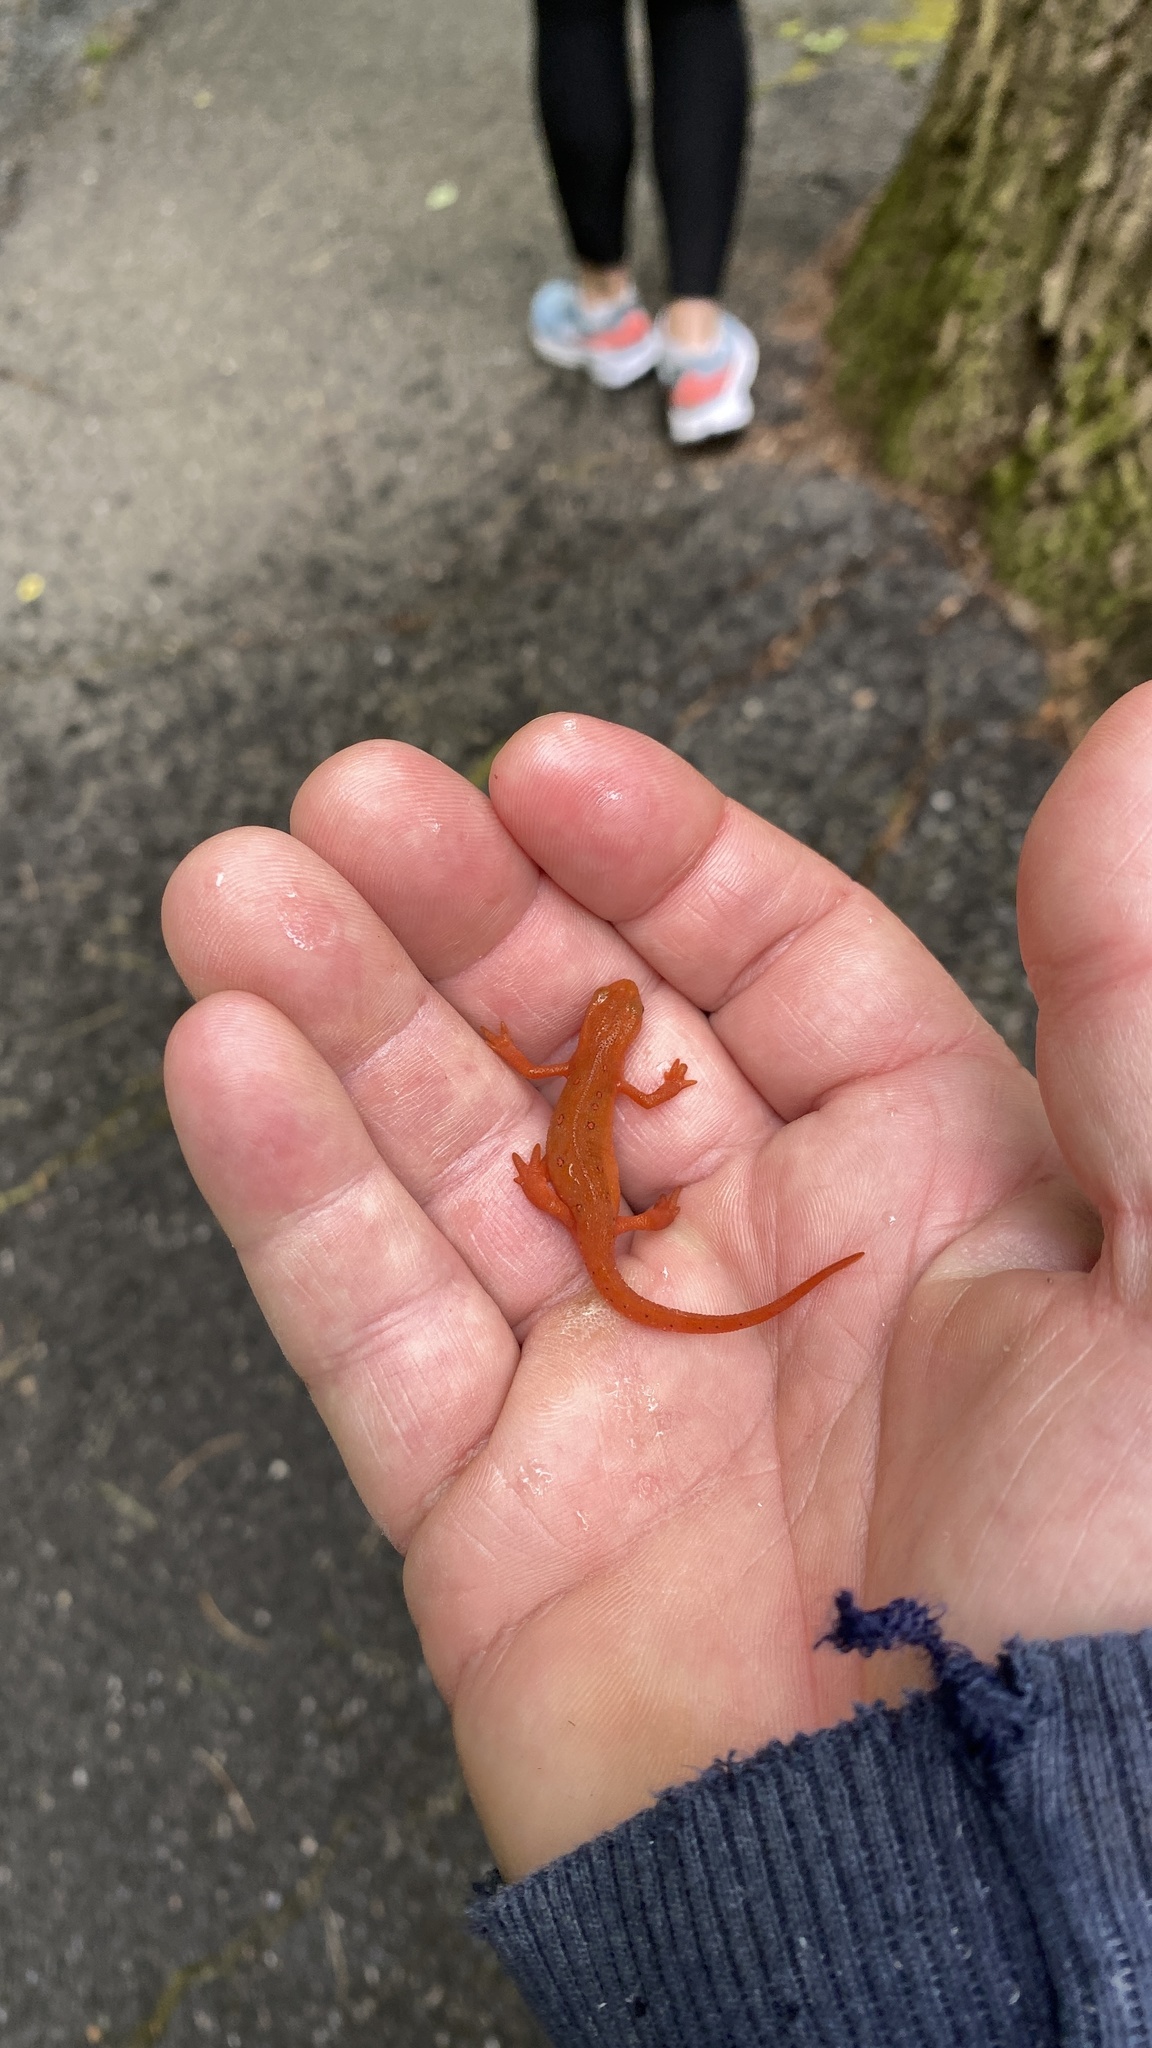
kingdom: Animalia
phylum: Chordata
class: Amphibia
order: Caudata
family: Salamandridae
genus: Notophthalmus
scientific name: Notophthalmus viridescens
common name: Eastern newt
